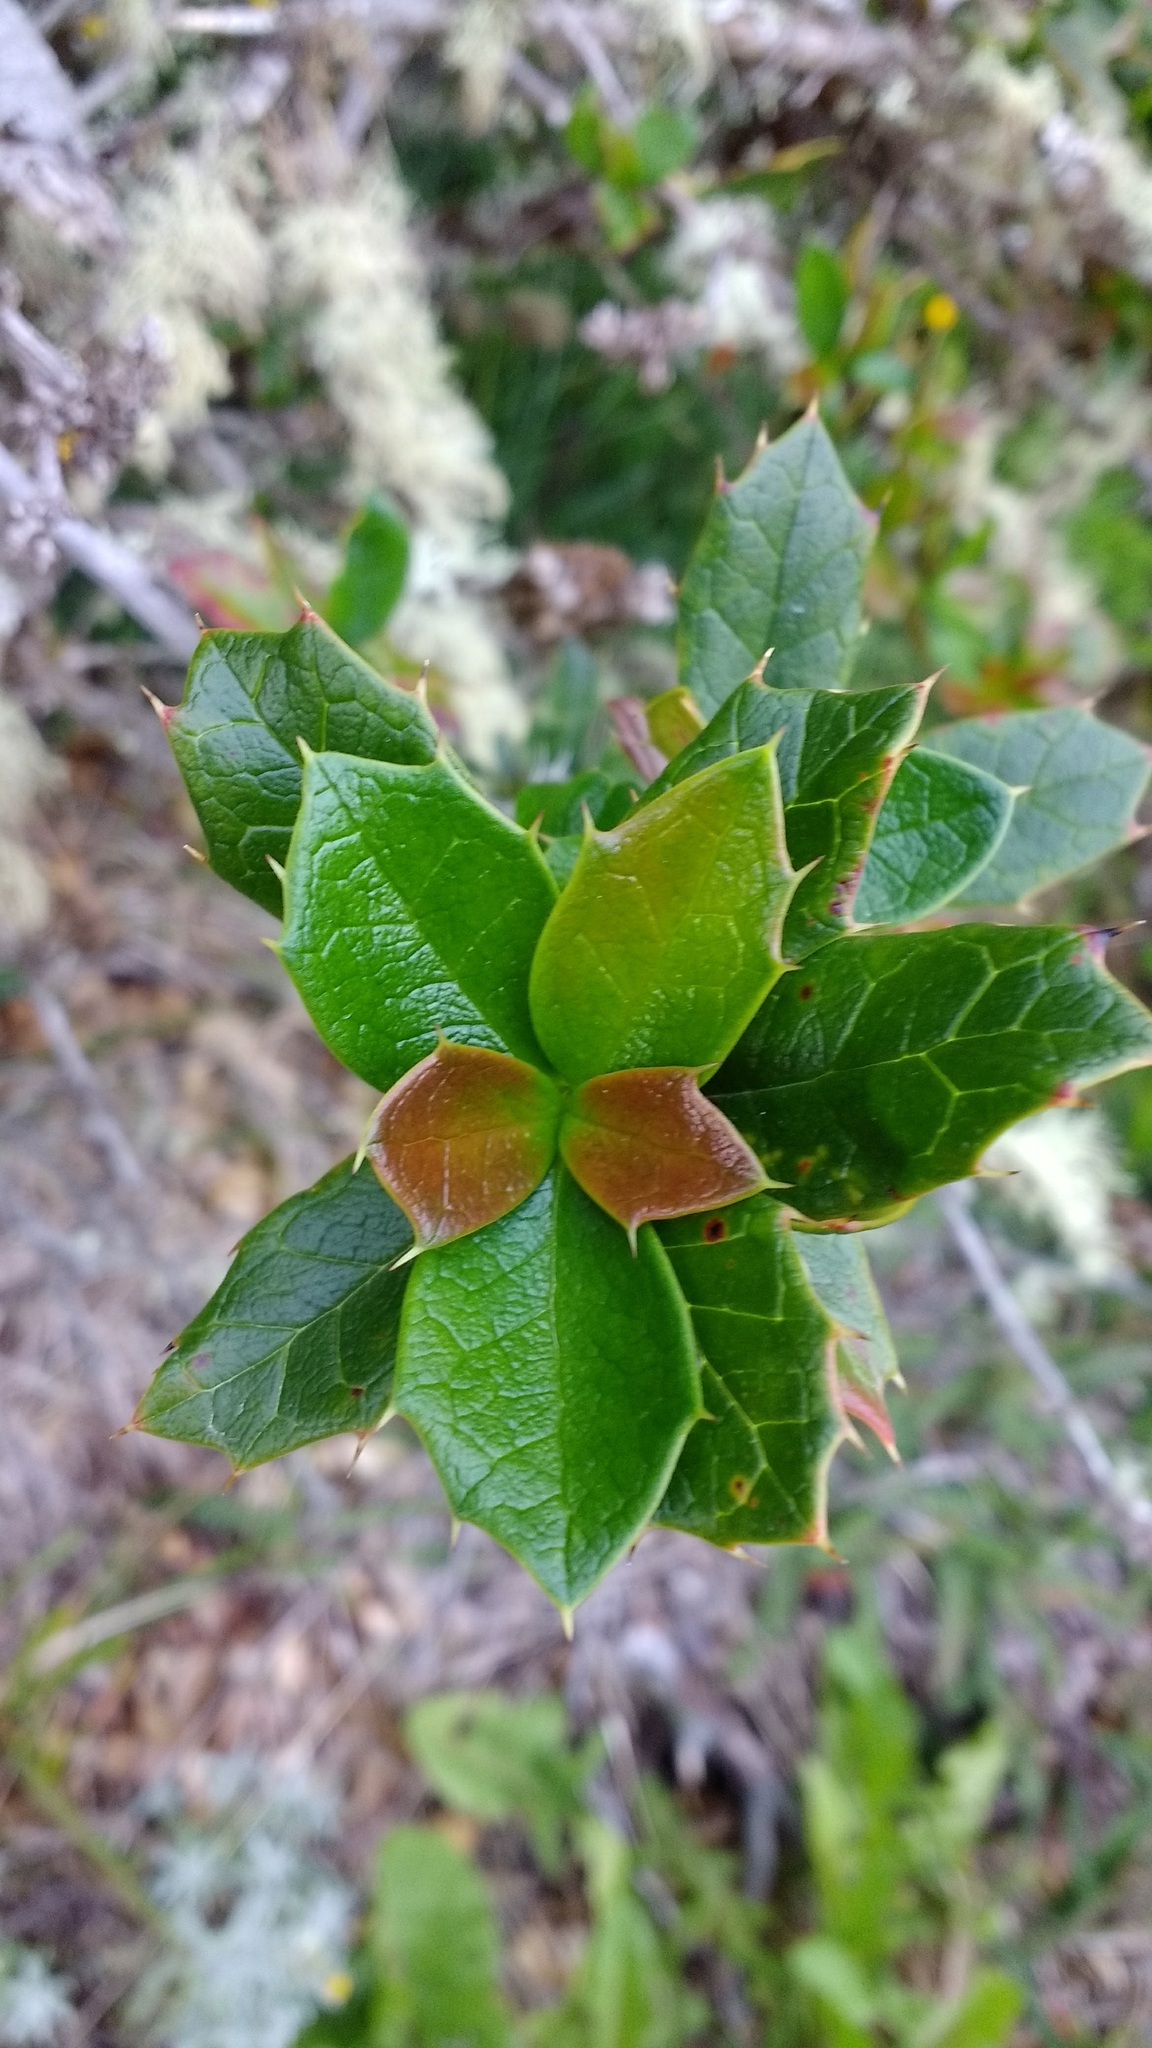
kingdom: Plantae
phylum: Tracheophyta
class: Magnoliopsida
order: Ranunculales
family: Berberidaceae
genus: Berberis
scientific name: Berberis ilicifolia
